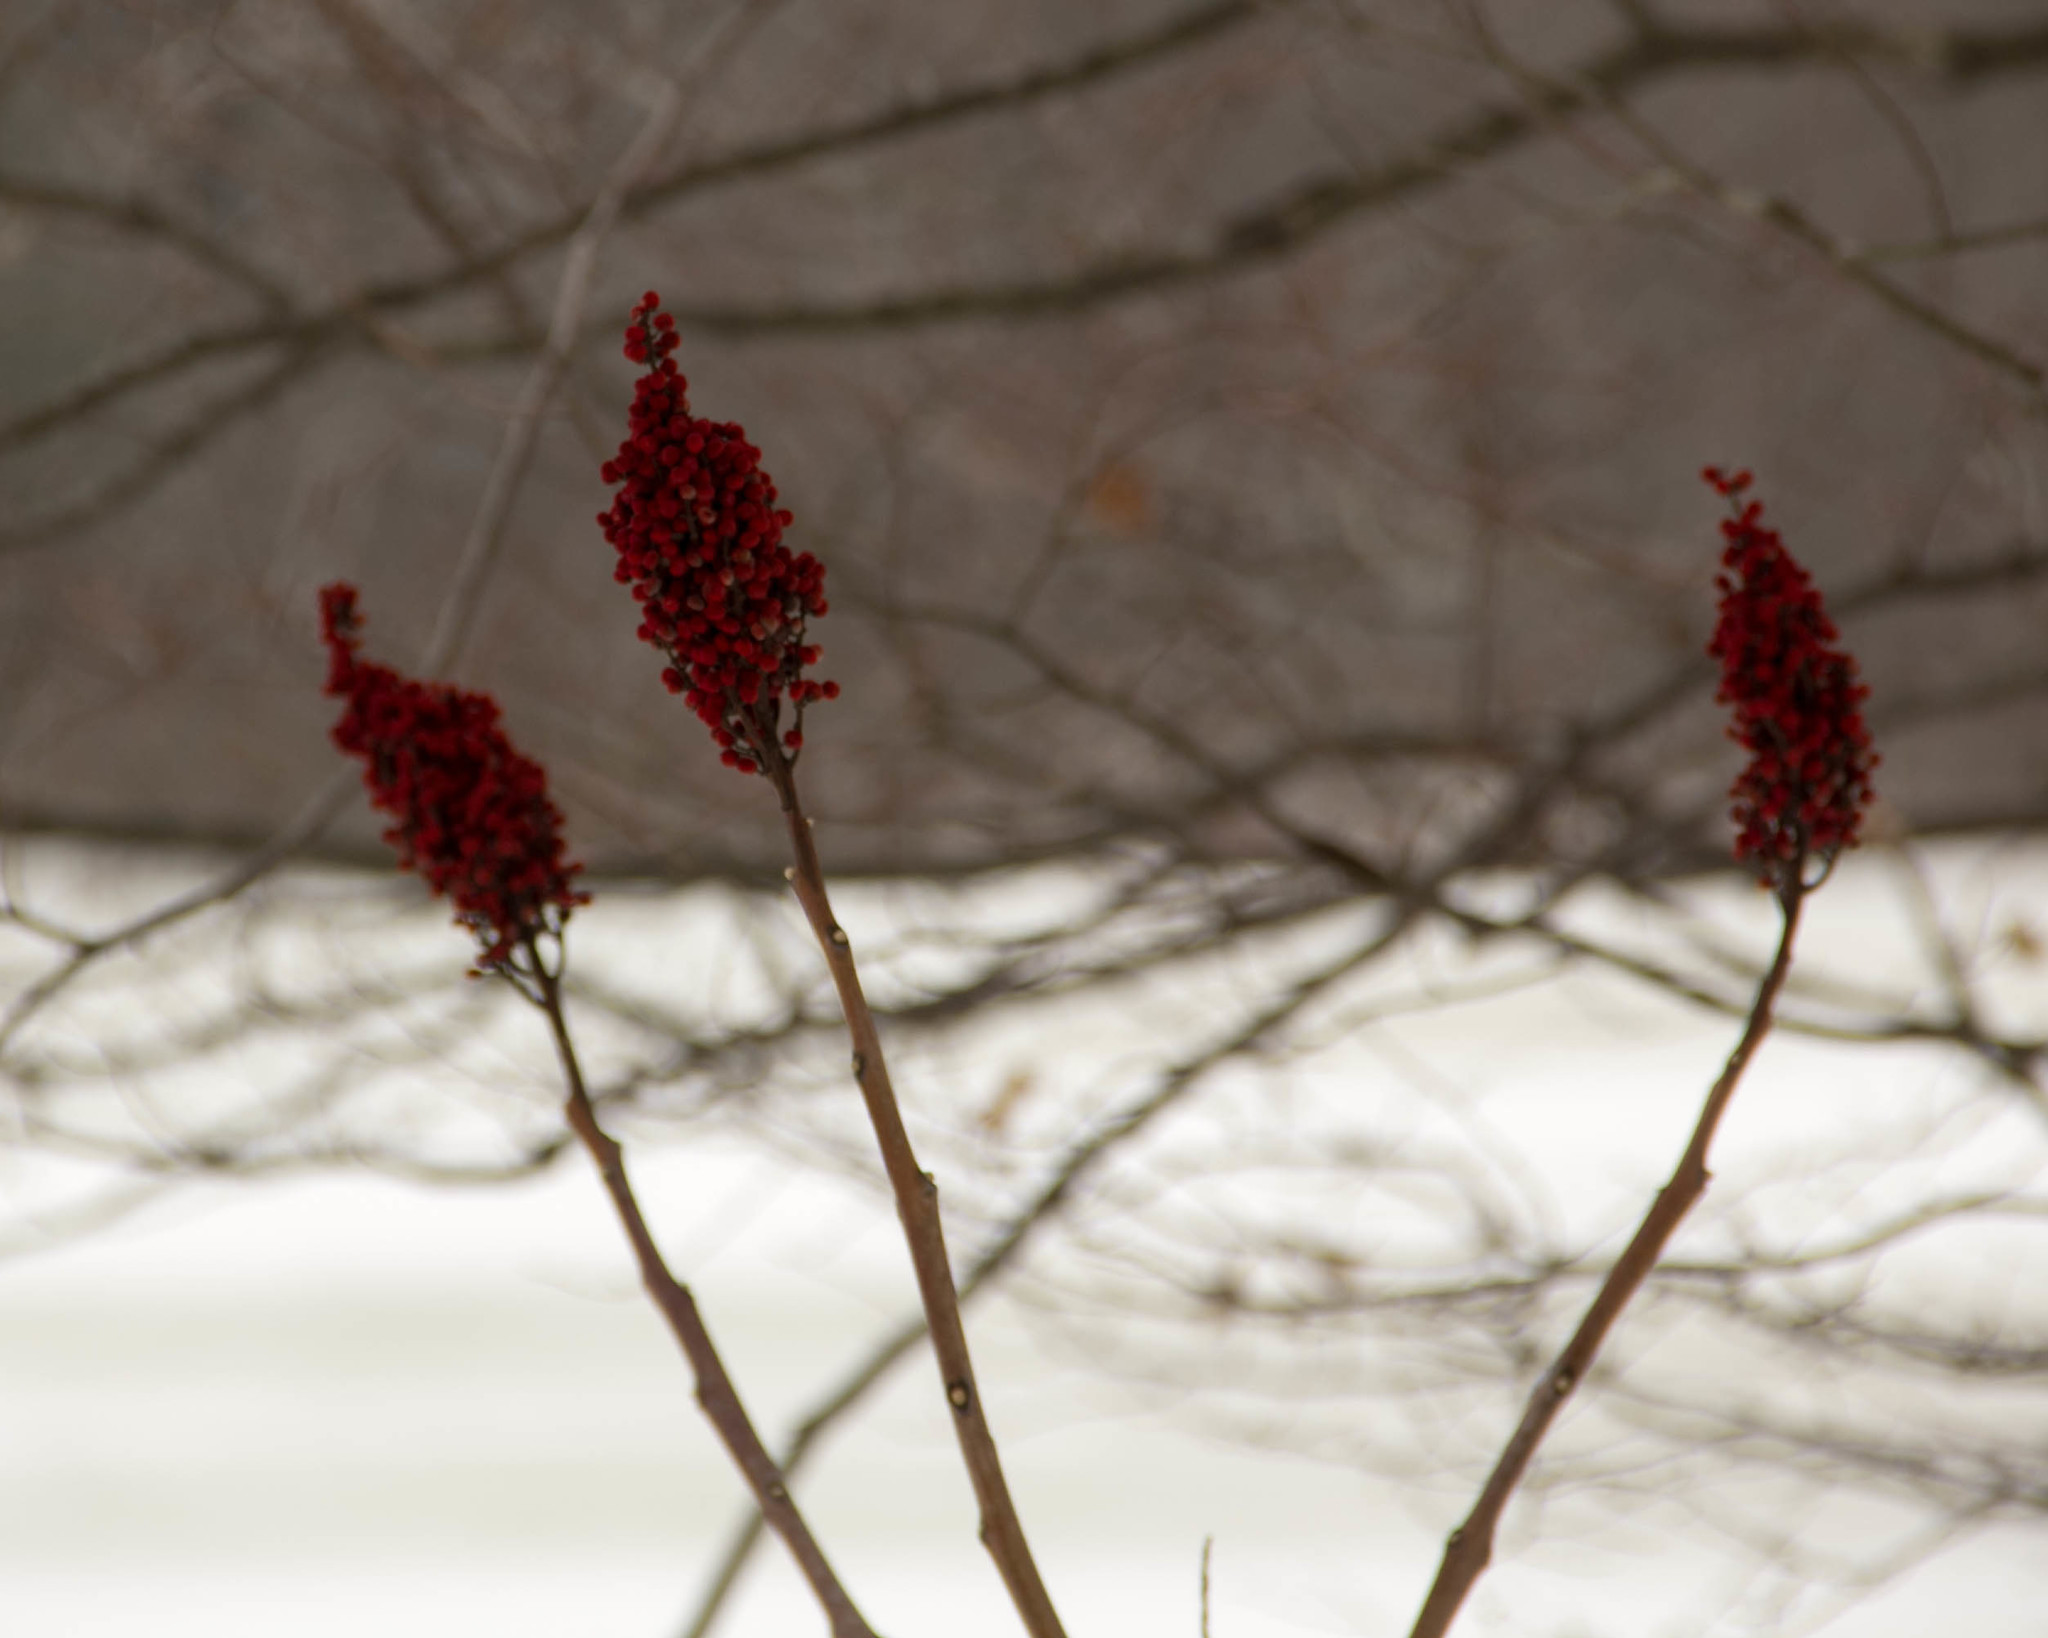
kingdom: Plantae
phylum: Tracheophyta
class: Magnoliopsida
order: Sapindales
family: Anacardiaceae
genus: Rhus
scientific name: Rhus glabra
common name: Scarlet sumac
